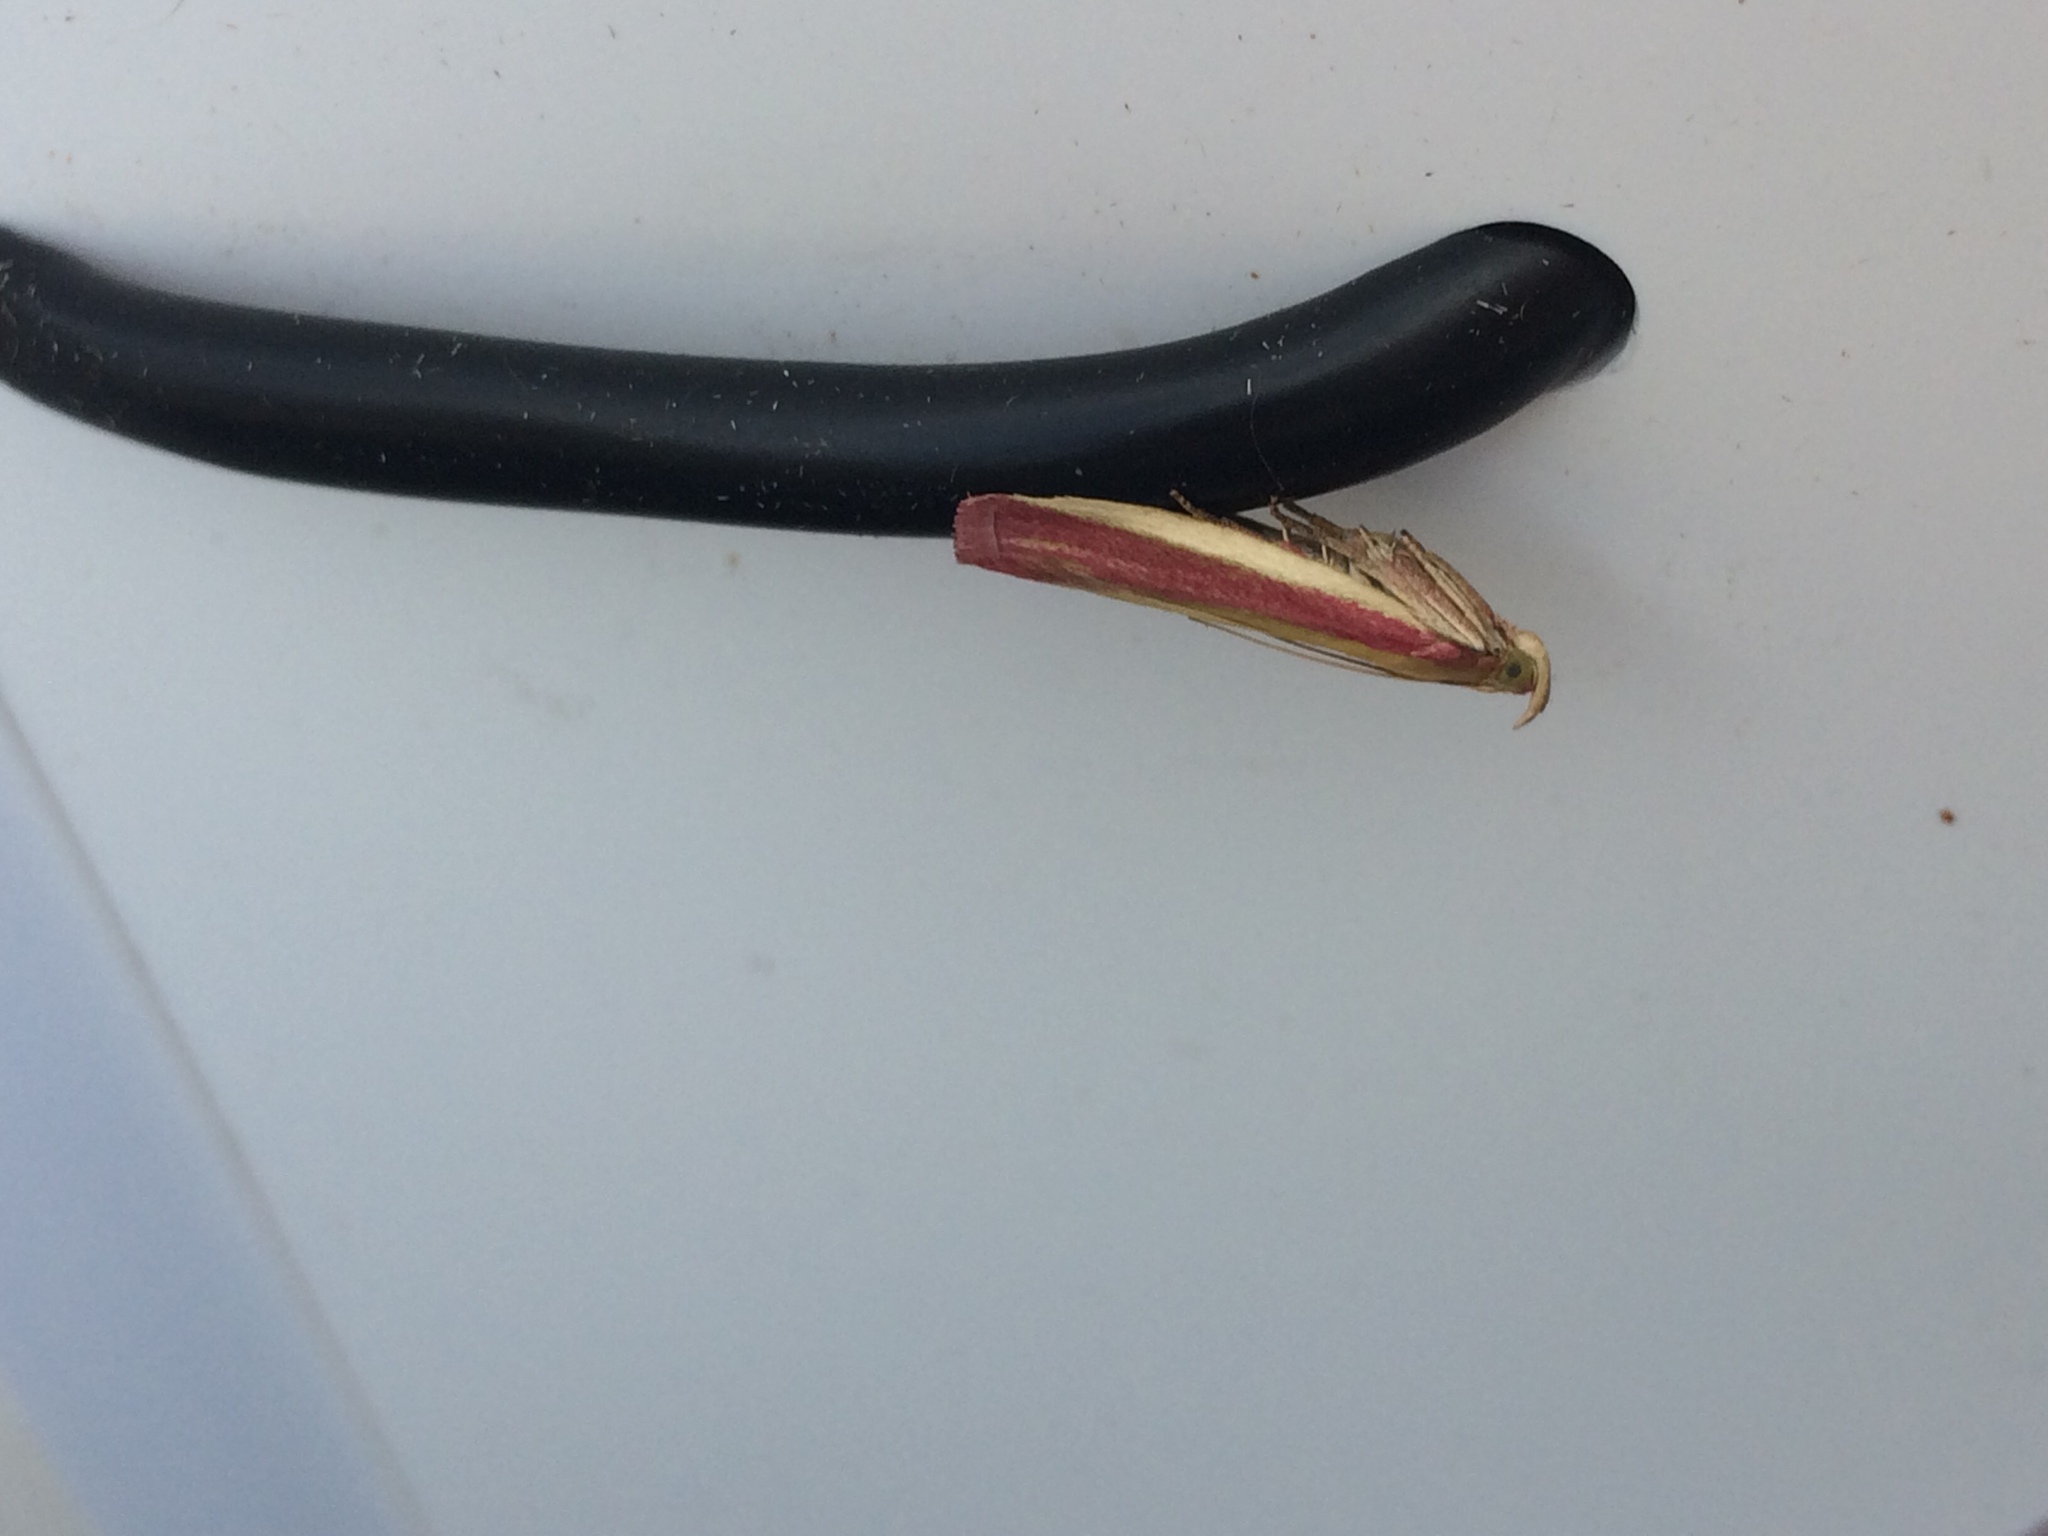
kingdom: Animalia
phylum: Arthropoda
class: Insecta
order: Lepidoptera
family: Pyralidae
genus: Oncocera
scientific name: Oncocera semirubella
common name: Rosy-striped knot-horn
